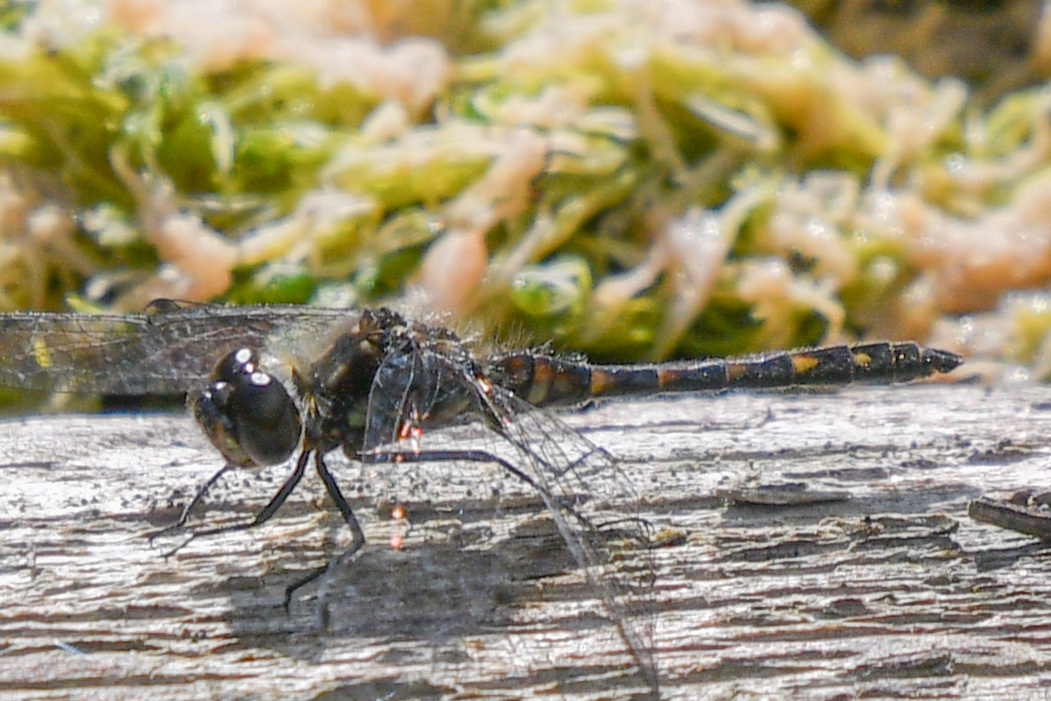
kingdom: Animalia
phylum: Arthropoda
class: Insecta
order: Odonata
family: Libellulidae
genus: Sympetrum
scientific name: Sympetrum danae
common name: Black darter
